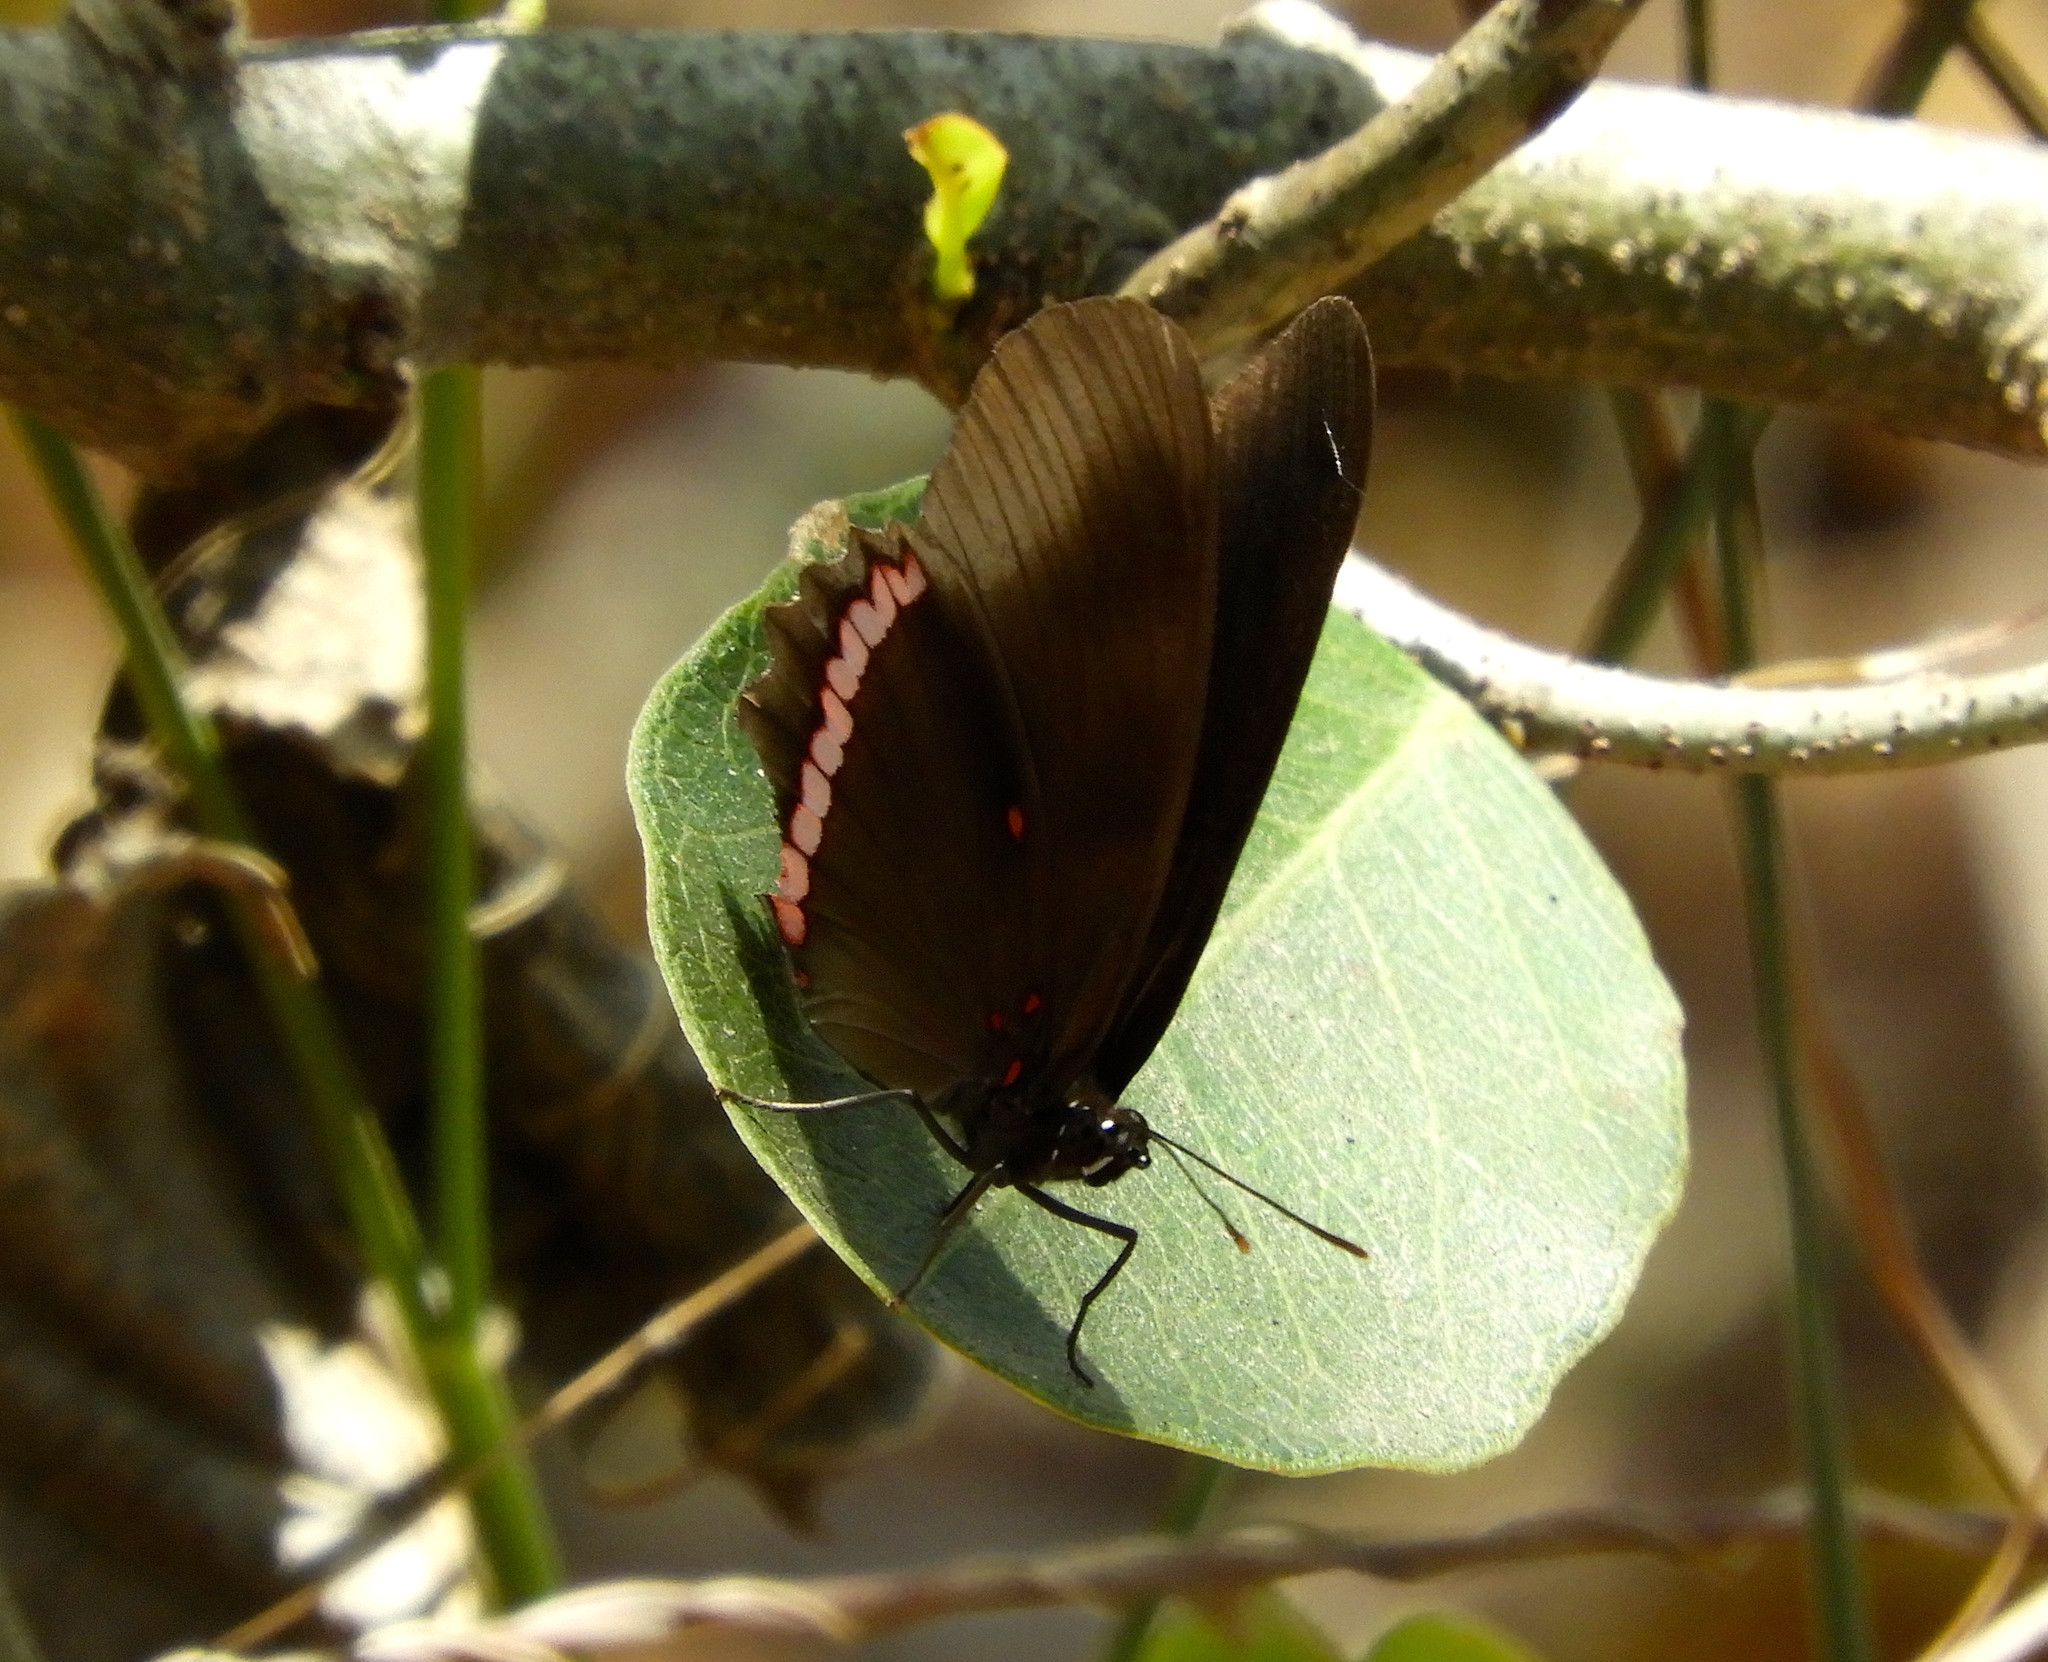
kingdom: Animalia
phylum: Arthropoda
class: Insecta
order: Lepidoptera
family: Nymphalidae
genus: Biblis
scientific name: Biblis aganisa
